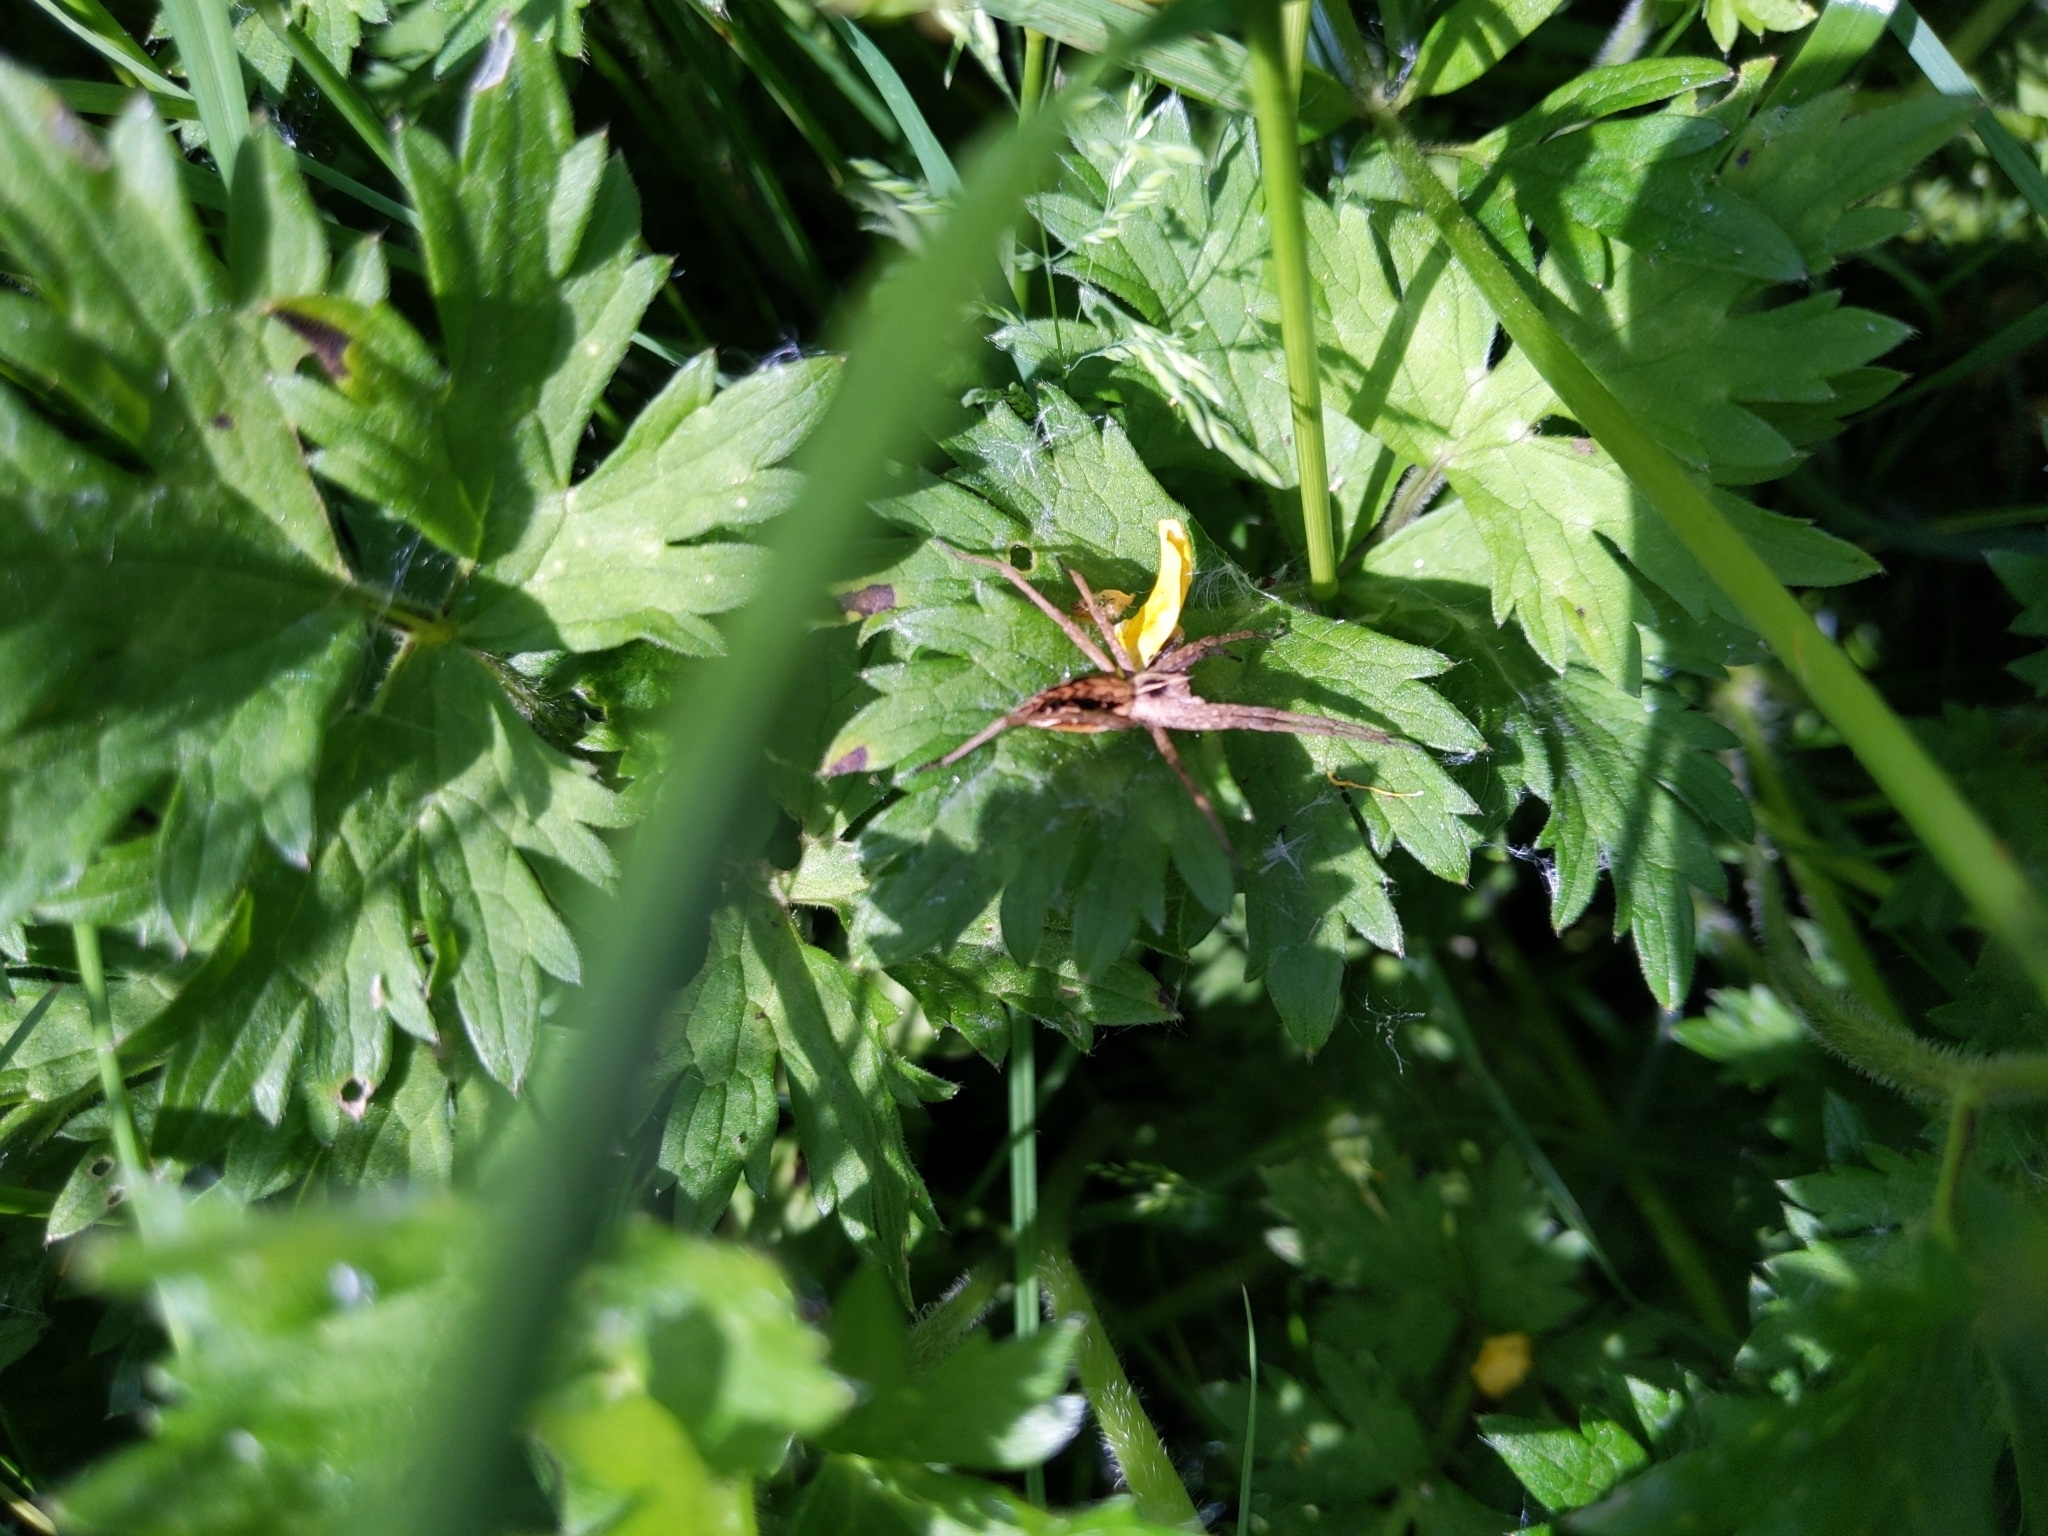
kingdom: Animalia
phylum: Arthropoda
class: Arachnida
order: Araneae
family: Pisauridae
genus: Pisaura
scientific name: Pisaura mirabilis
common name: Tent spider
